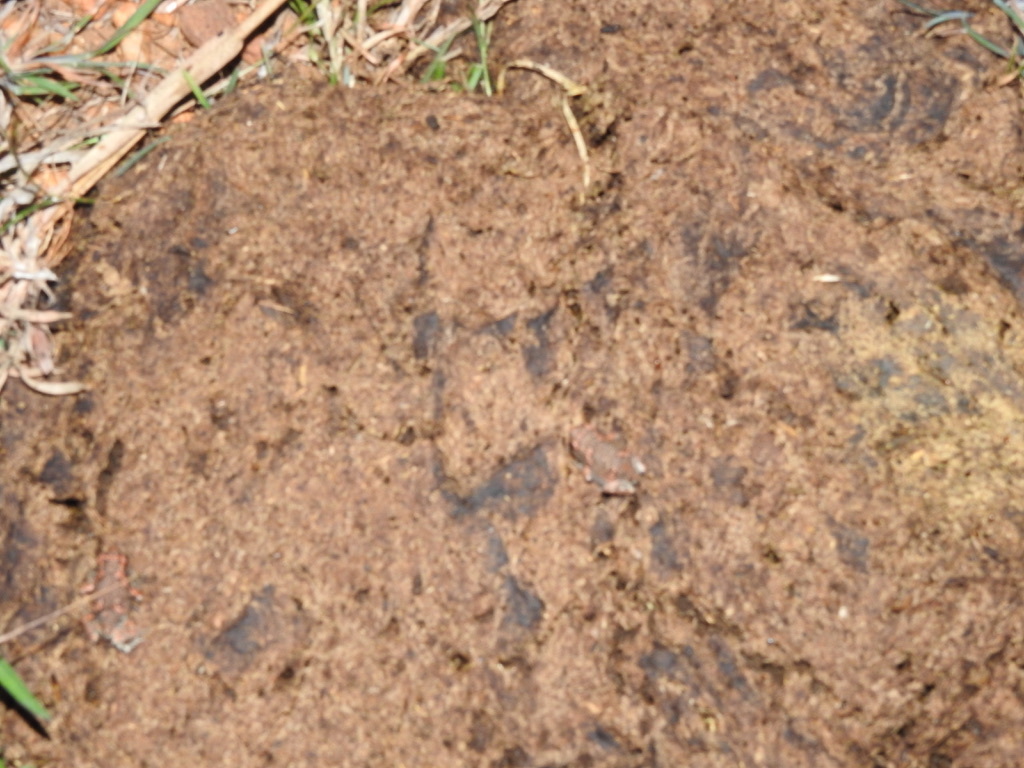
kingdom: Animalia
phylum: Chordata
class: Amphibia
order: Anura
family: Microhylidae
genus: Uperodon
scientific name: Uperodon taprobanicus
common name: Ceylon kaloula
